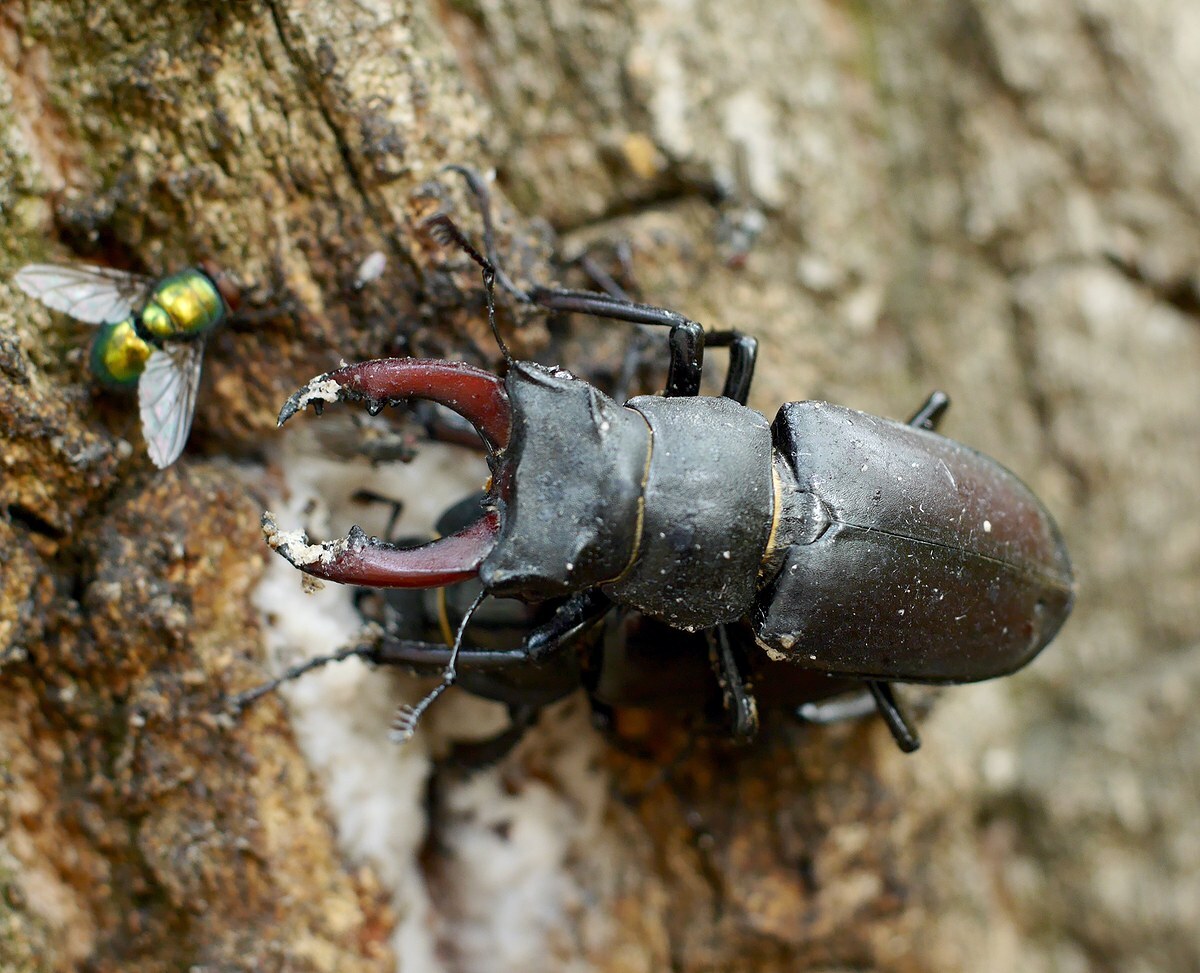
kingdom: Animalia
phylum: Arthropoda
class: Insecta
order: Coleoptera
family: Lucanidae
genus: Lucanus
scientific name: Lucanus cervus
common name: Stag beetle
